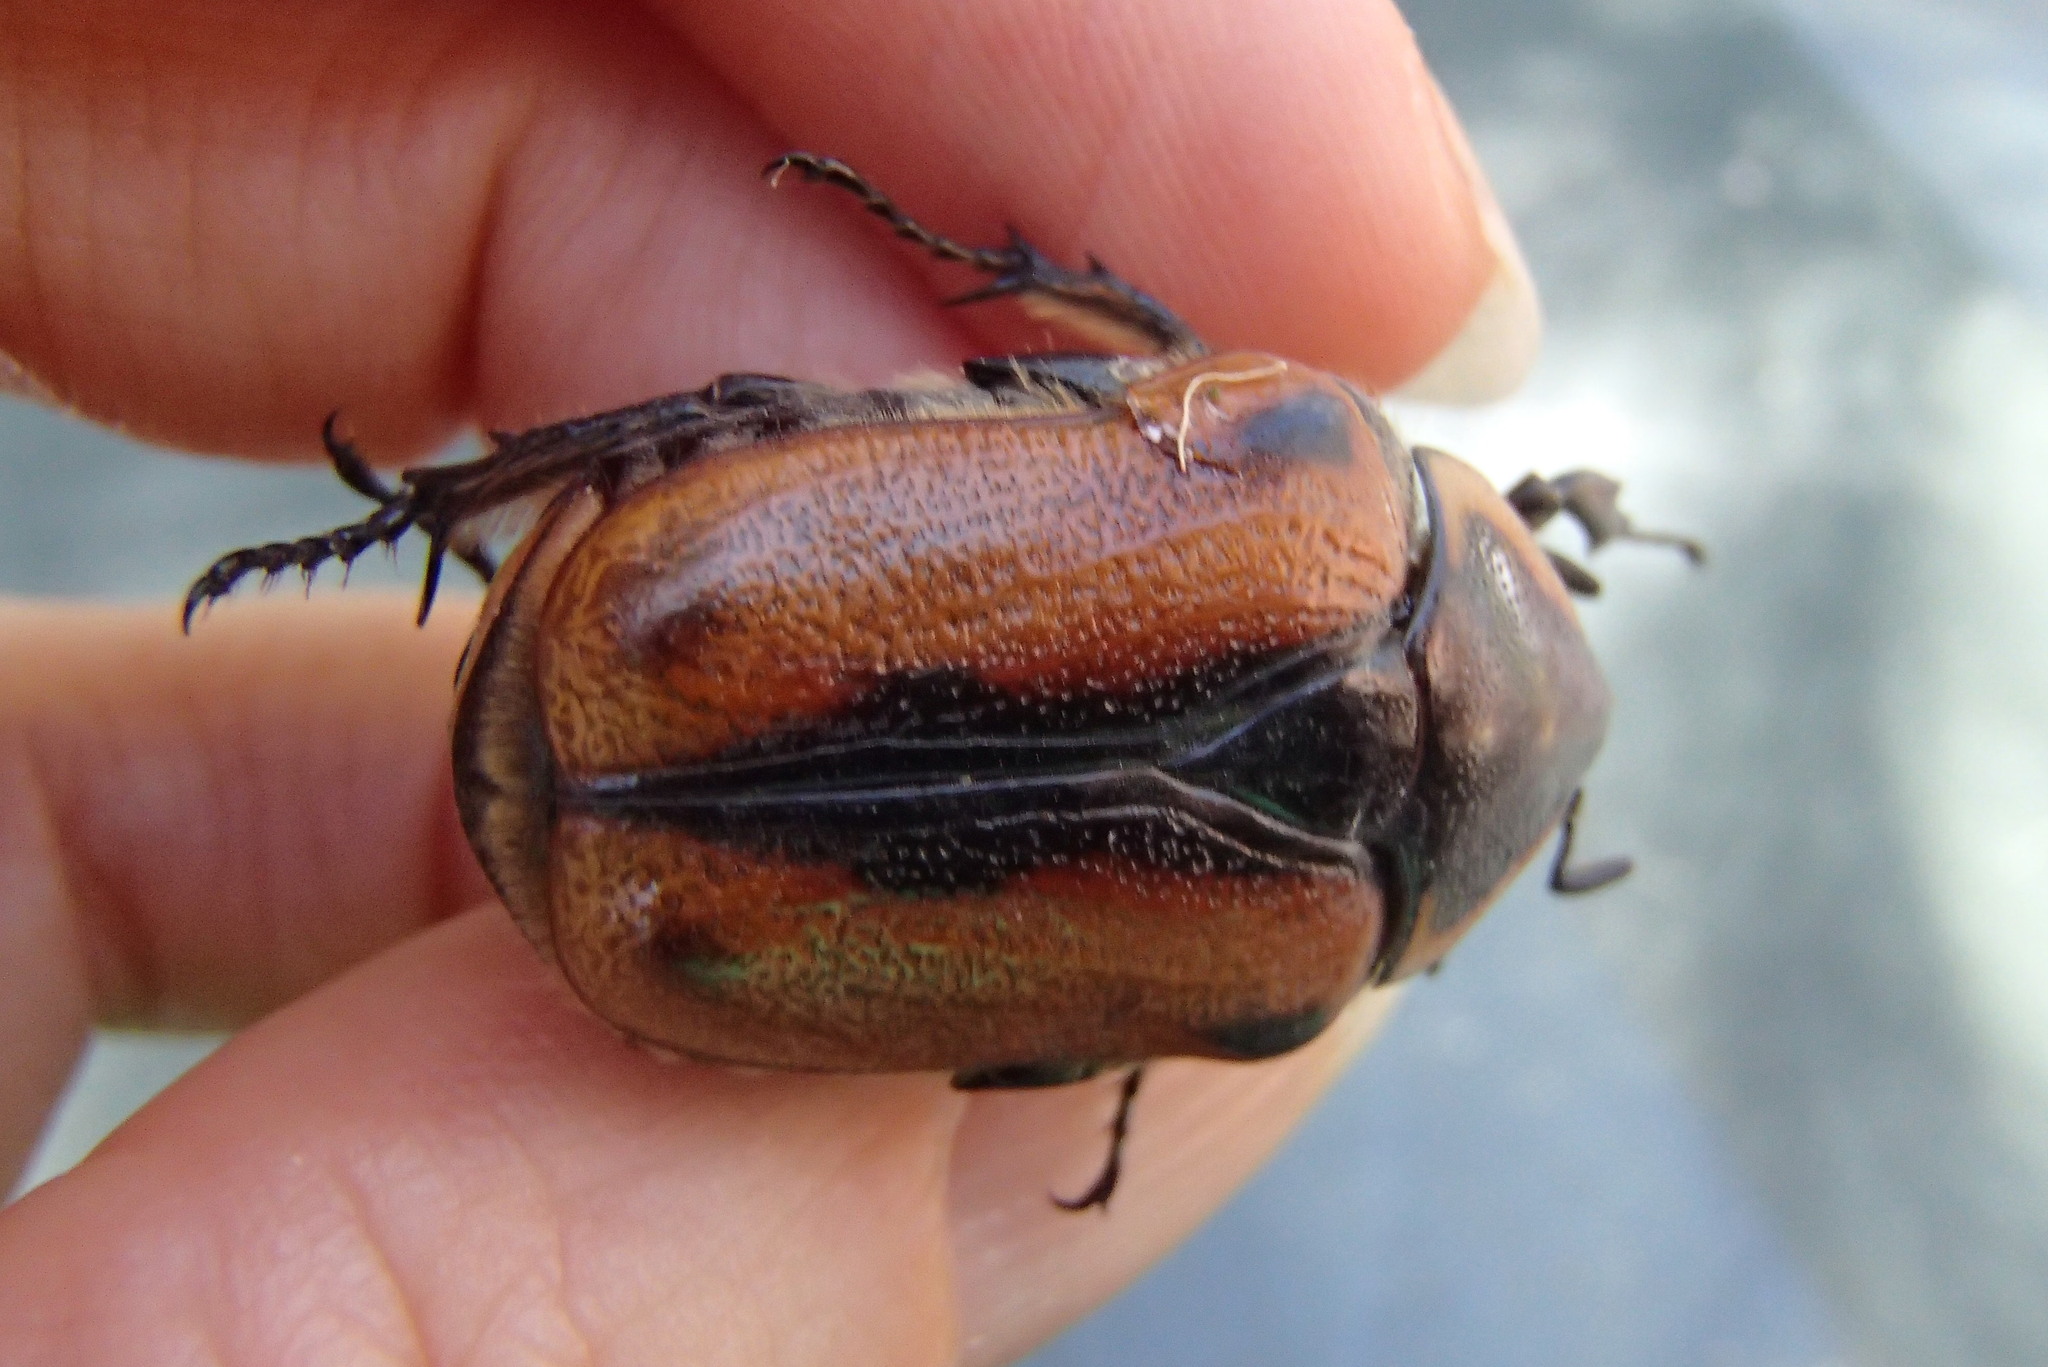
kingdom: Animalia
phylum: Arthropoda
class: Insecta
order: Coleoptera
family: Scarabaeidae
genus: Chondropyga
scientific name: Chondropyga dorsalis
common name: Cowboy beetle
